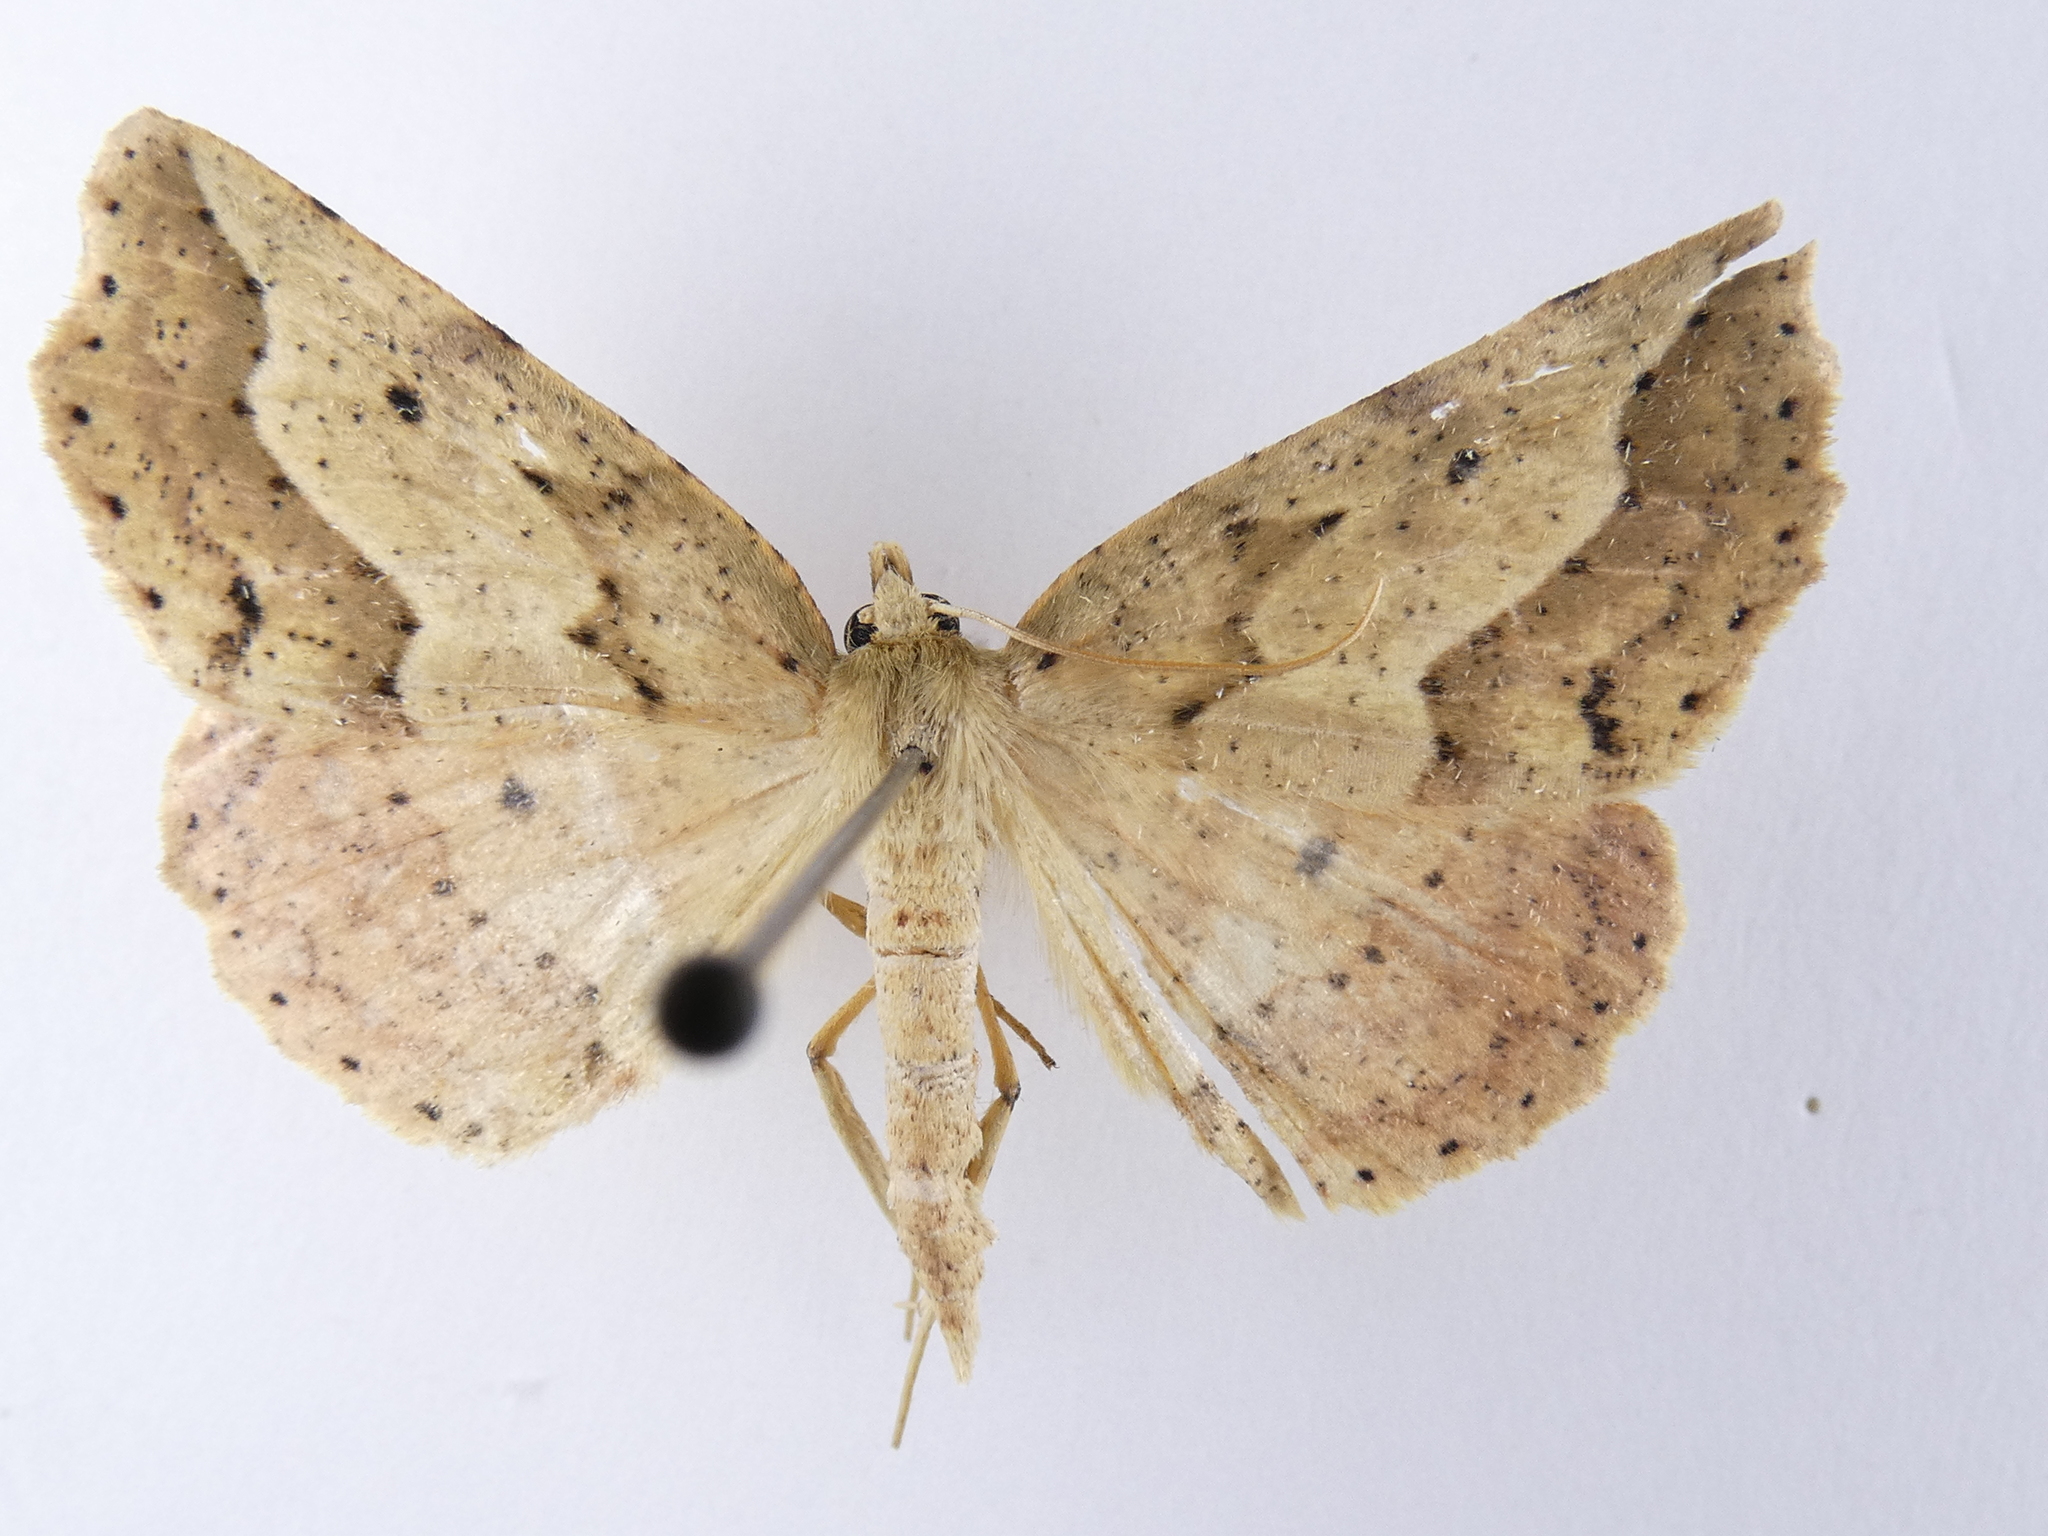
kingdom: Animalia
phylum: Arthropoda
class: Insecta
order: Lepidoptera
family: Geometridae
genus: Ischalis
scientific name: Ischalis variabilis
